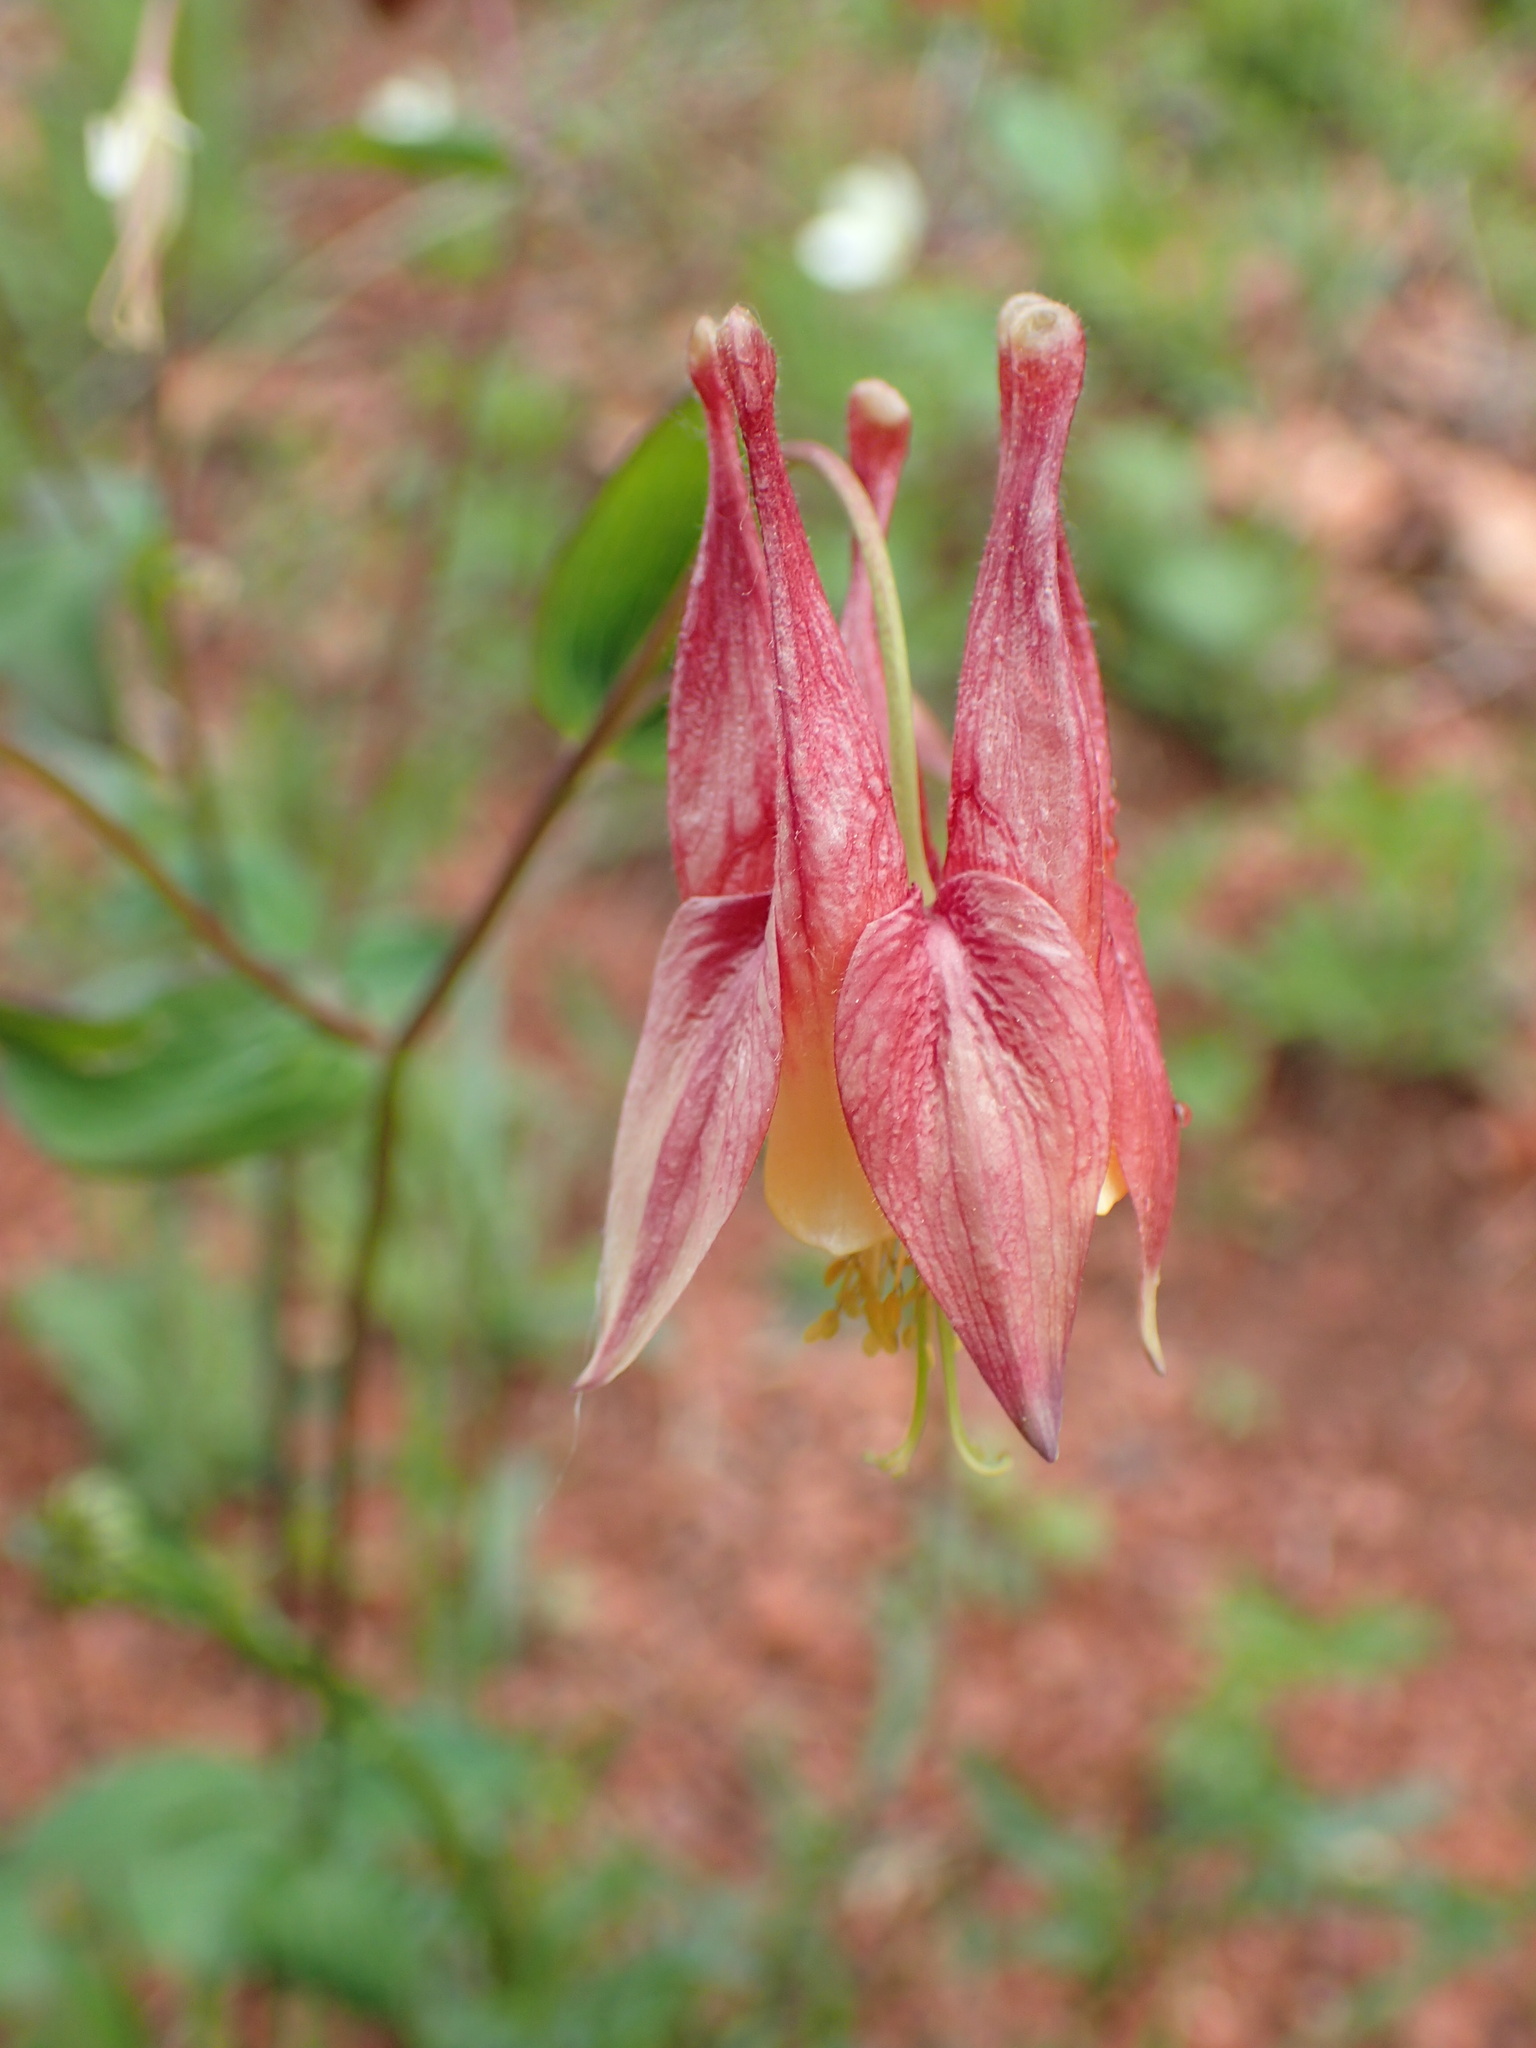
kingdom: Plantae
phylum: Tracheophyta
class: Magnoliopsida
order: Ranunculales
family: Ranunculaceae
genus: Aquilegia
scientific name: Aquilegia canadensis
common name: American columbine
